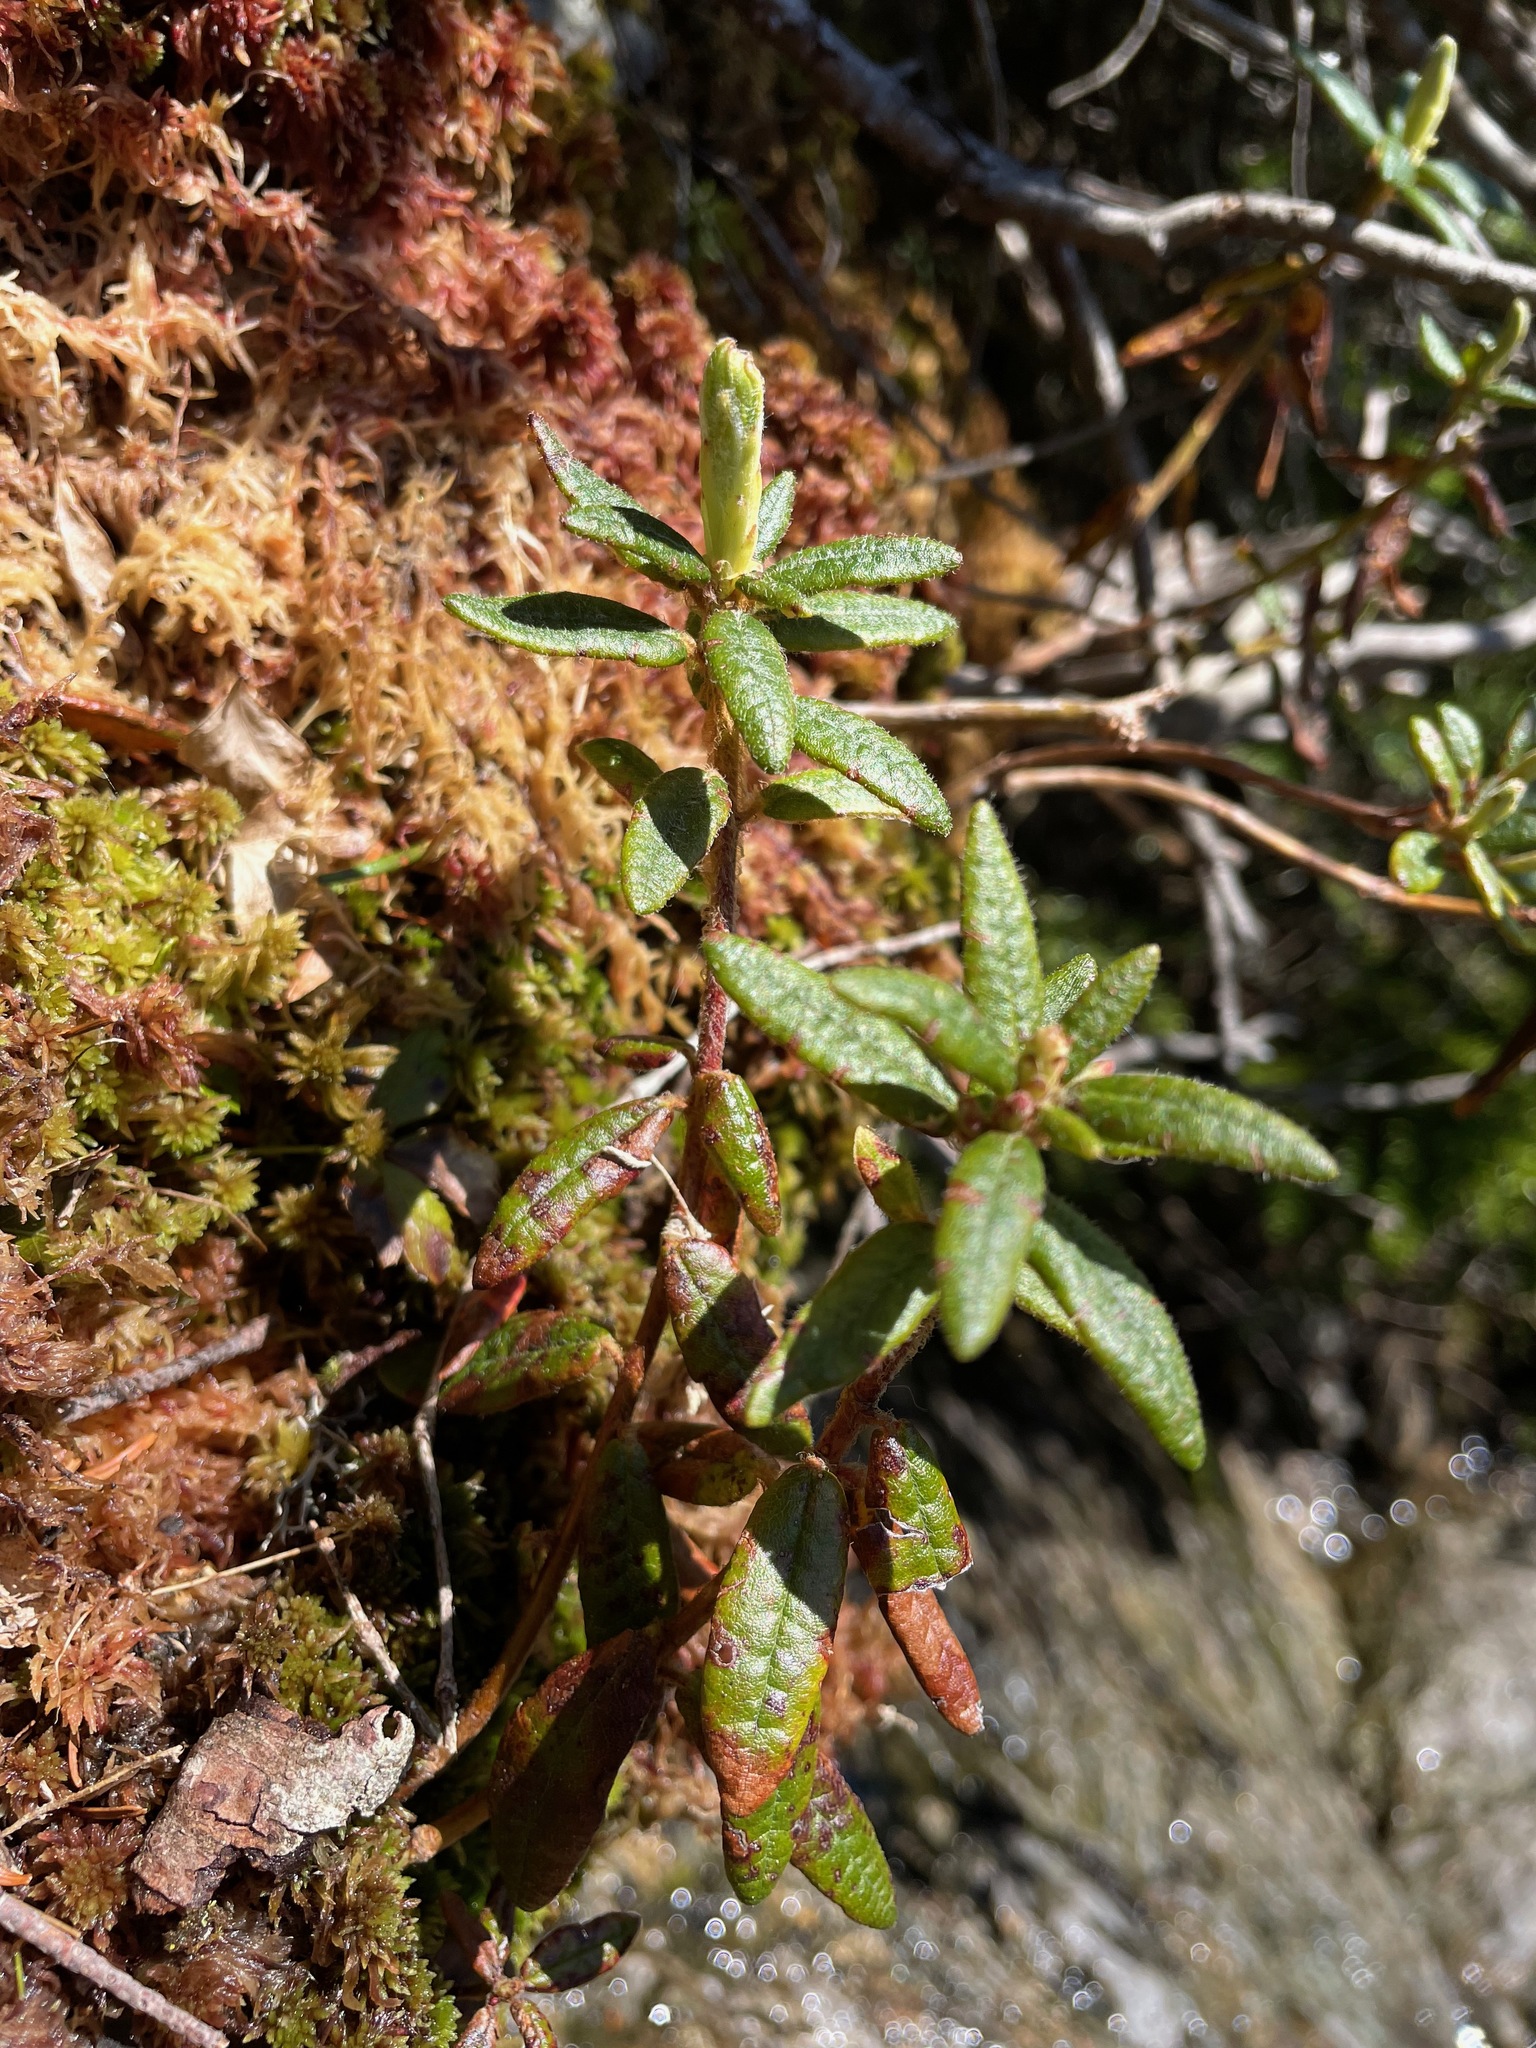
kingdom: Plantae
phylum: Tracheophyta
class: Magnoliopsida
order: Ericales
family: Ericaceae
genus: Rhododendron
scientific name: Rhododendron groenlandicum
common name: Bog labrador tea
